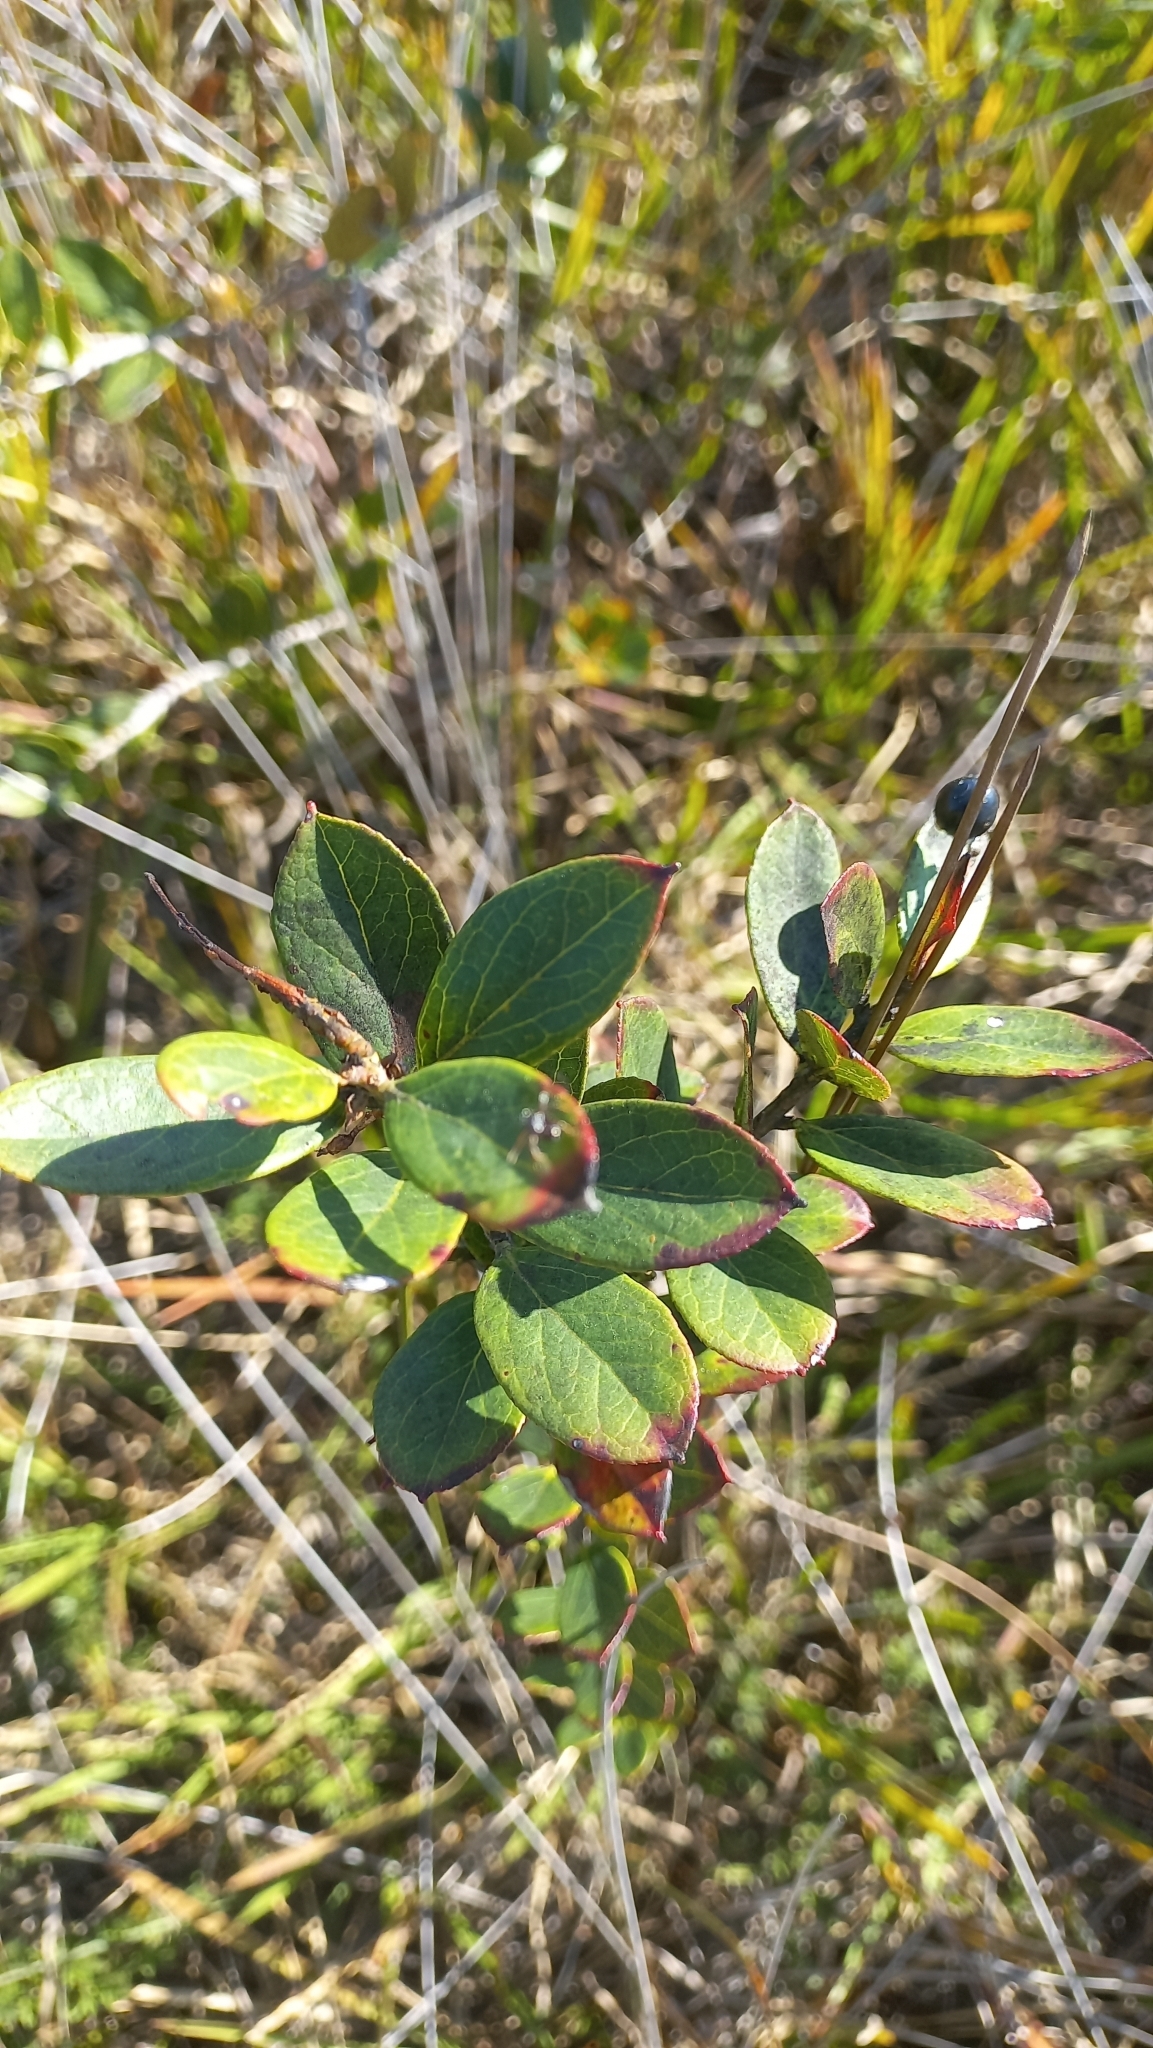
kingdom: Plantae
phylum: Tracheophyta
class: Magnoliopsida
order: Ericales
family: Ericaceae
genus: Gaylussacia
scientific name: Gaylussacia brasiliensis
